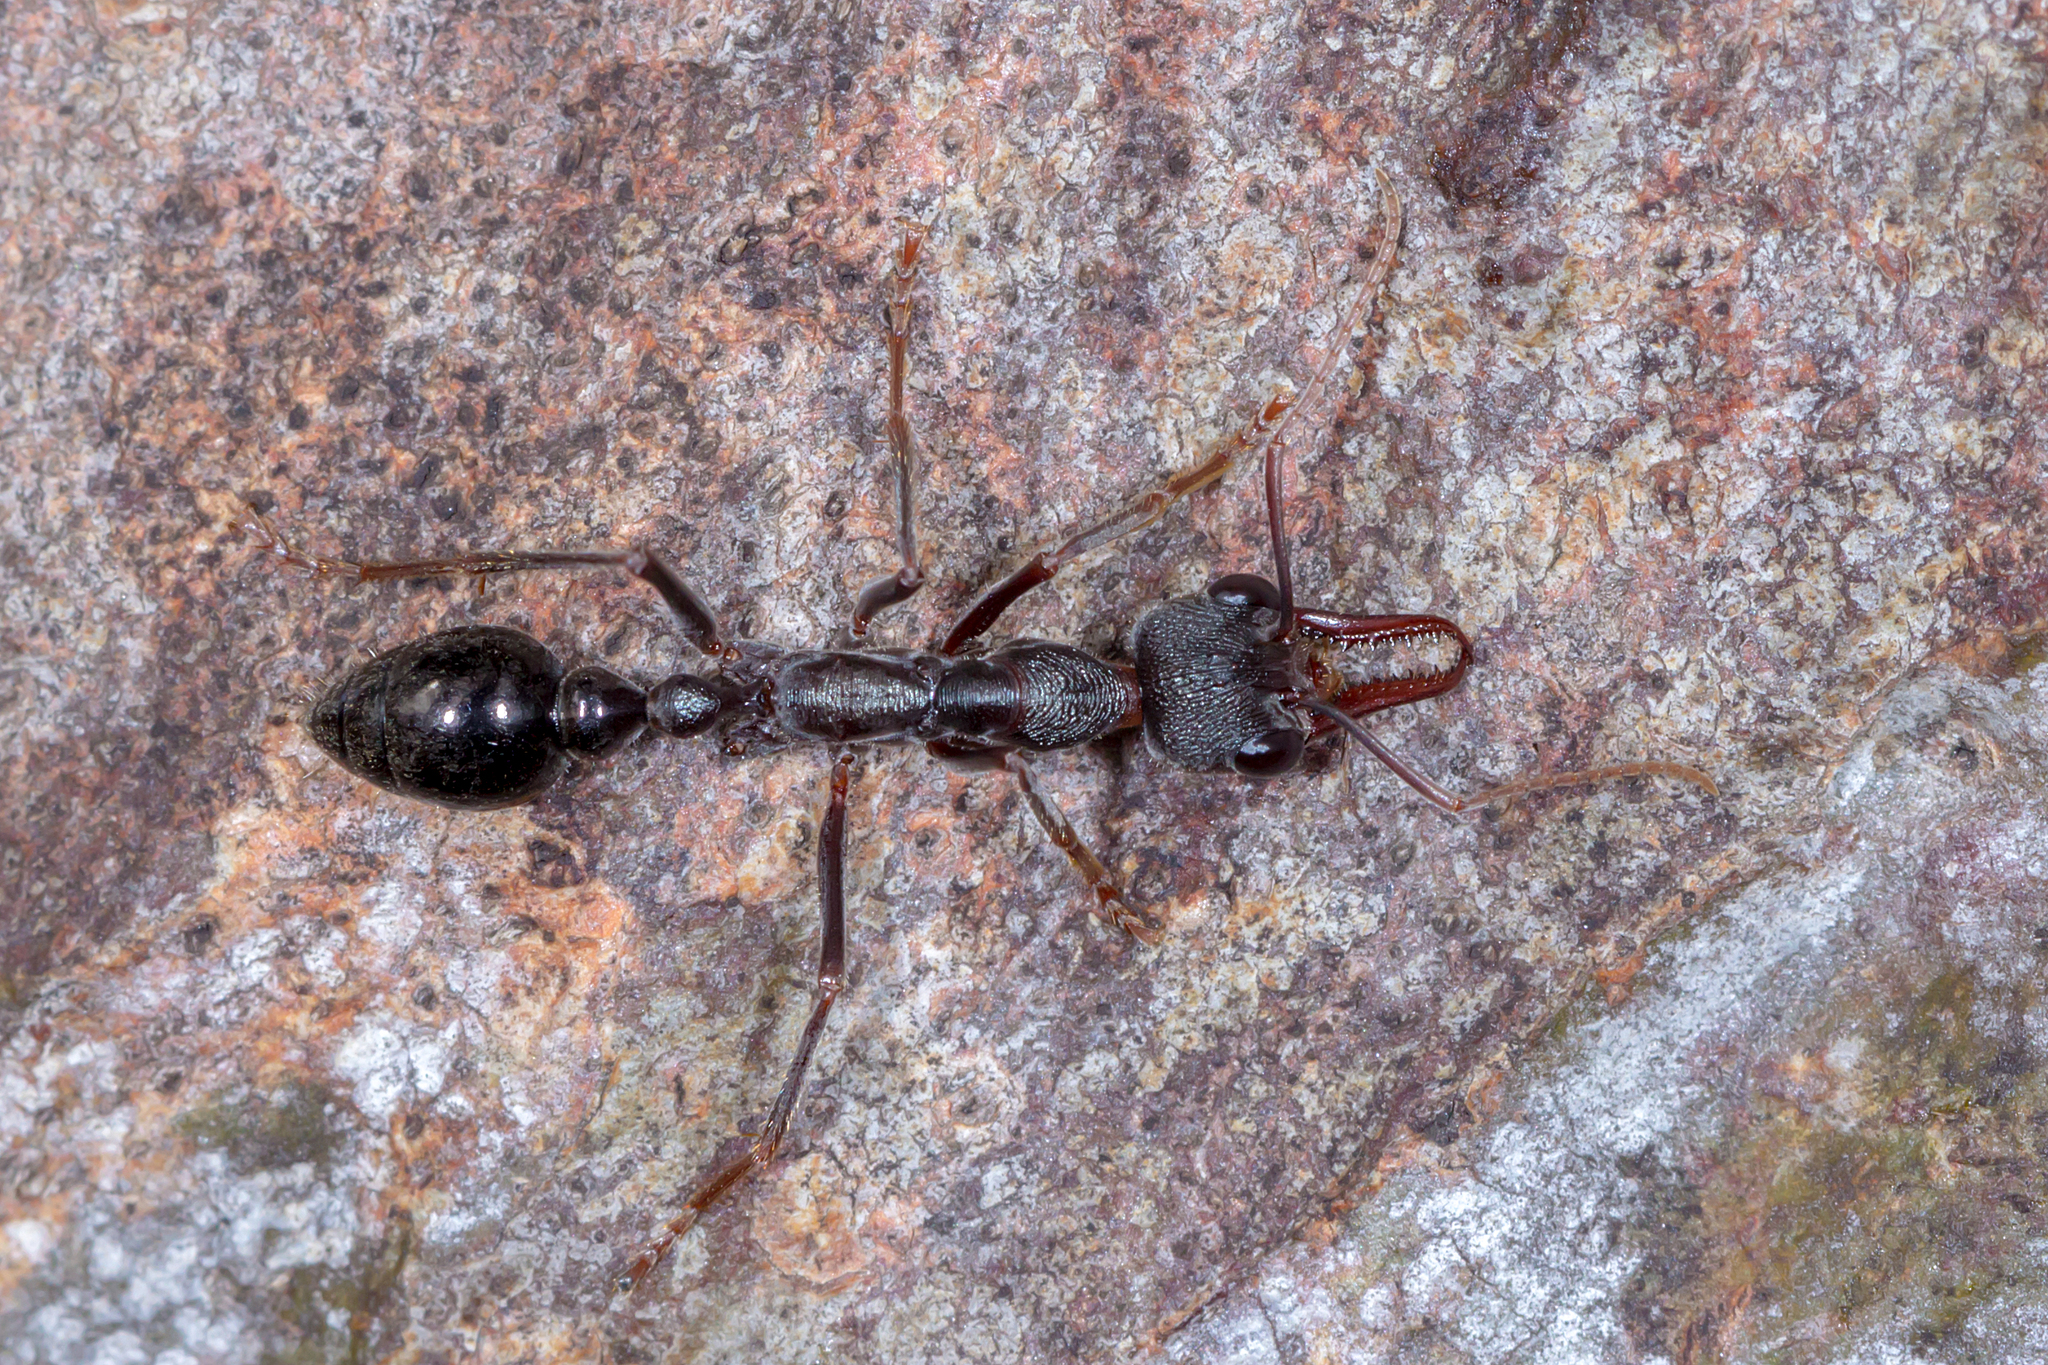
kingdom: Animalia
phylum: Arthropoda
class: Insecta
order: Hymenoptera
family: Formicidae
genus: Myrmecia
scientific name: Myrmecia pyriformis
